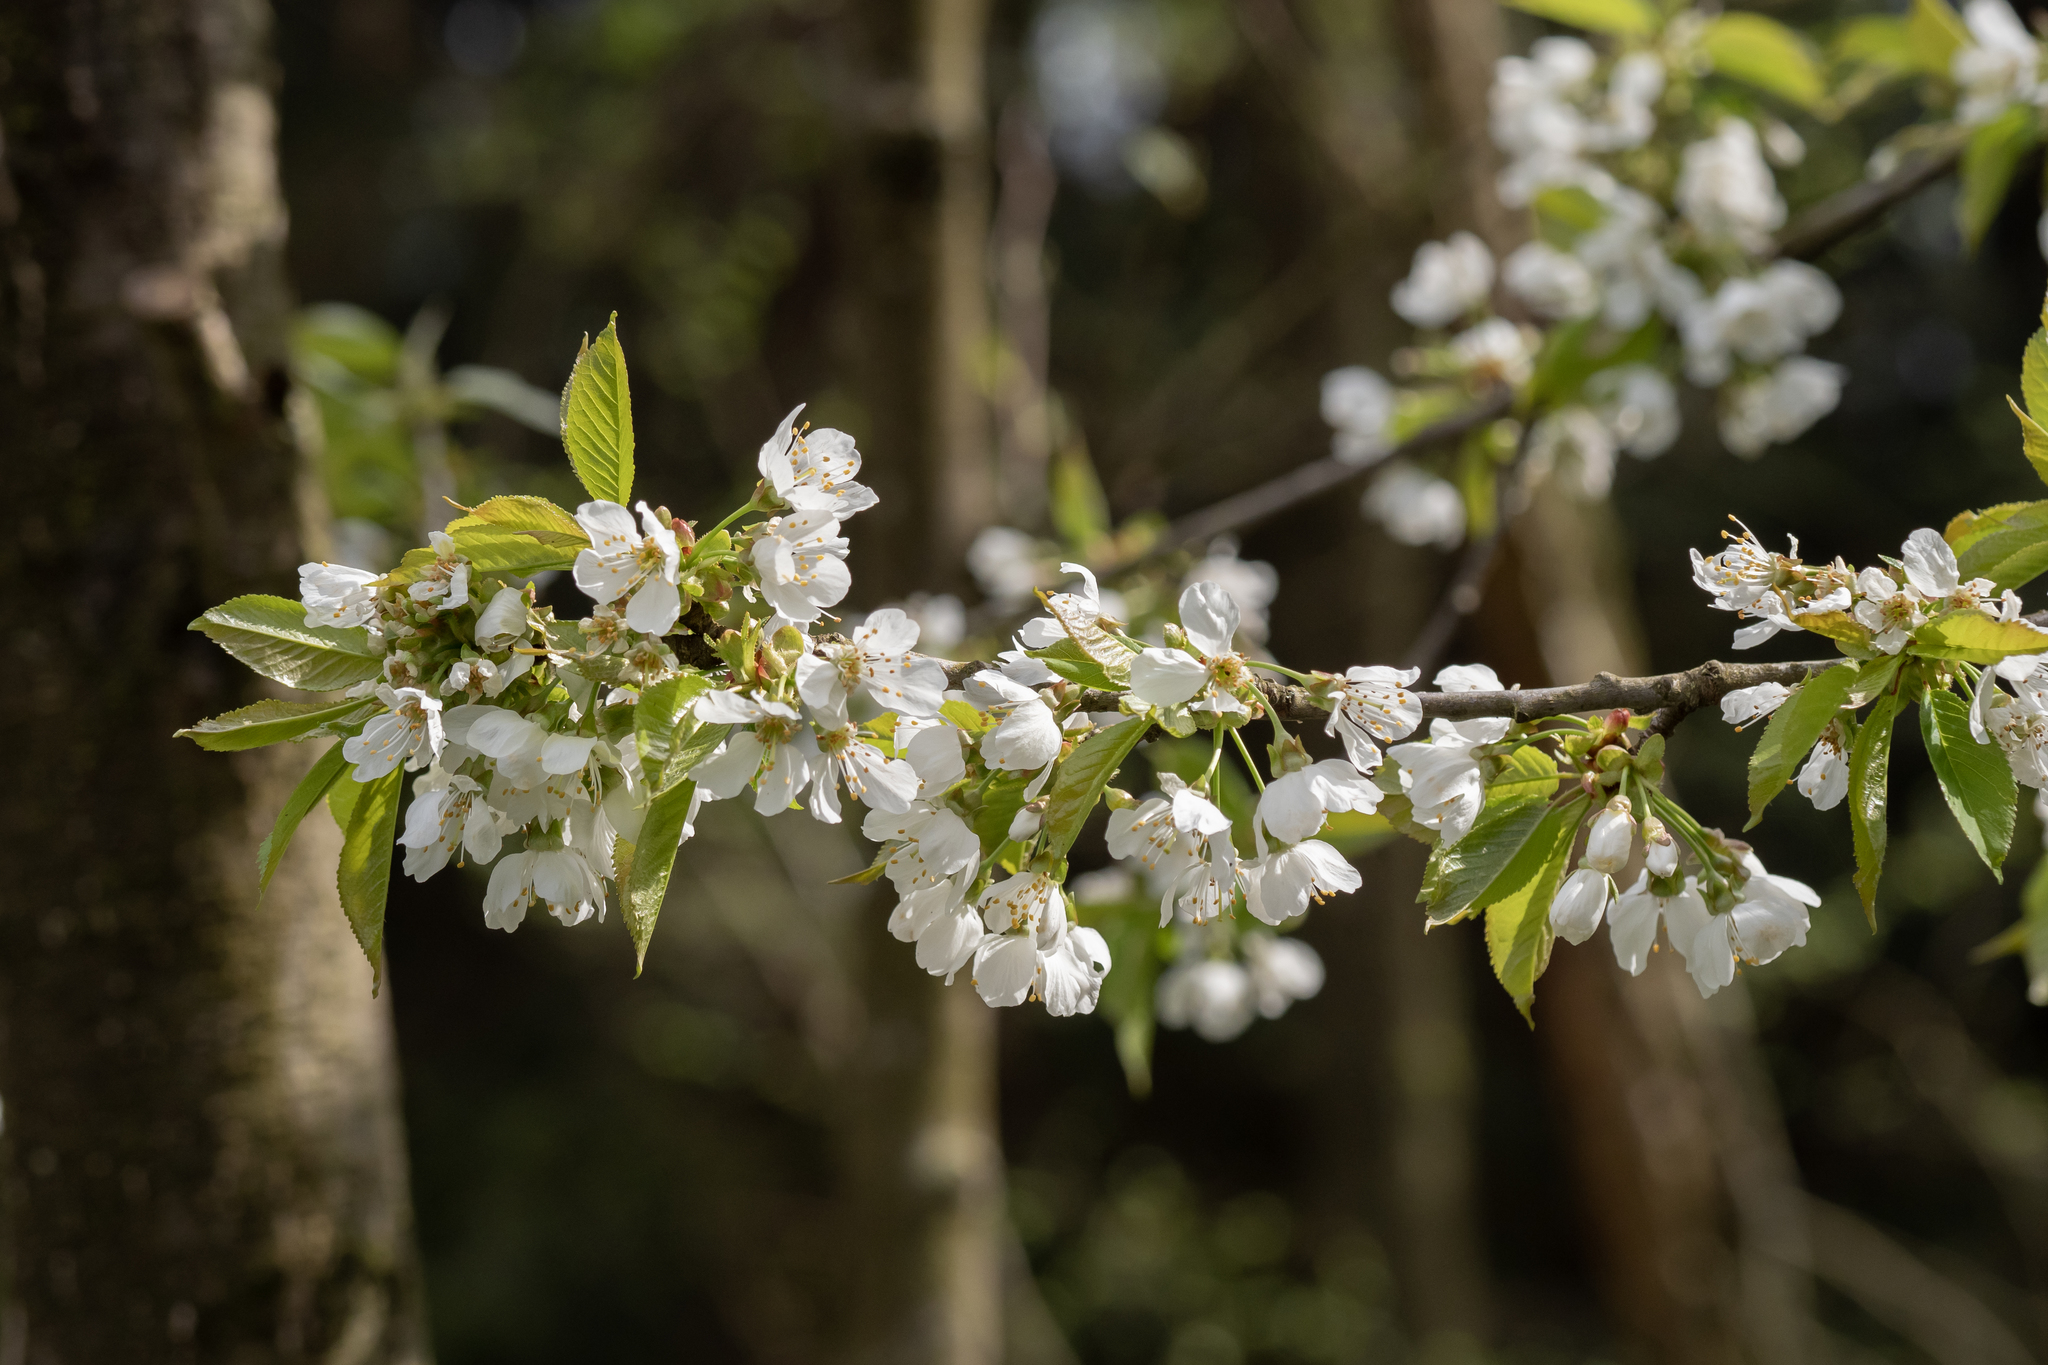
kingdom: Plantae
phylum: Tracheophyta
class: Magnoliopsida
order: Rosales
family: Rosaceae
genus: Prunus
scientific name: Prunus avium
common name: Sweet cherry
